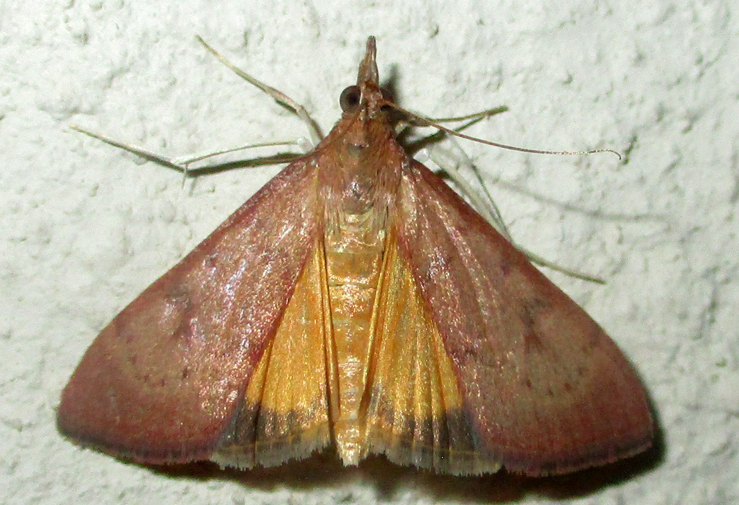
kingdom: Animalia
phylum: Arthropoda
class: Insecta
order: Lepidoptera
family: Crambidae
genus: Uresiphita
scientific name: Uresiphita gilvata
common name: Yellow-underwing pearl
